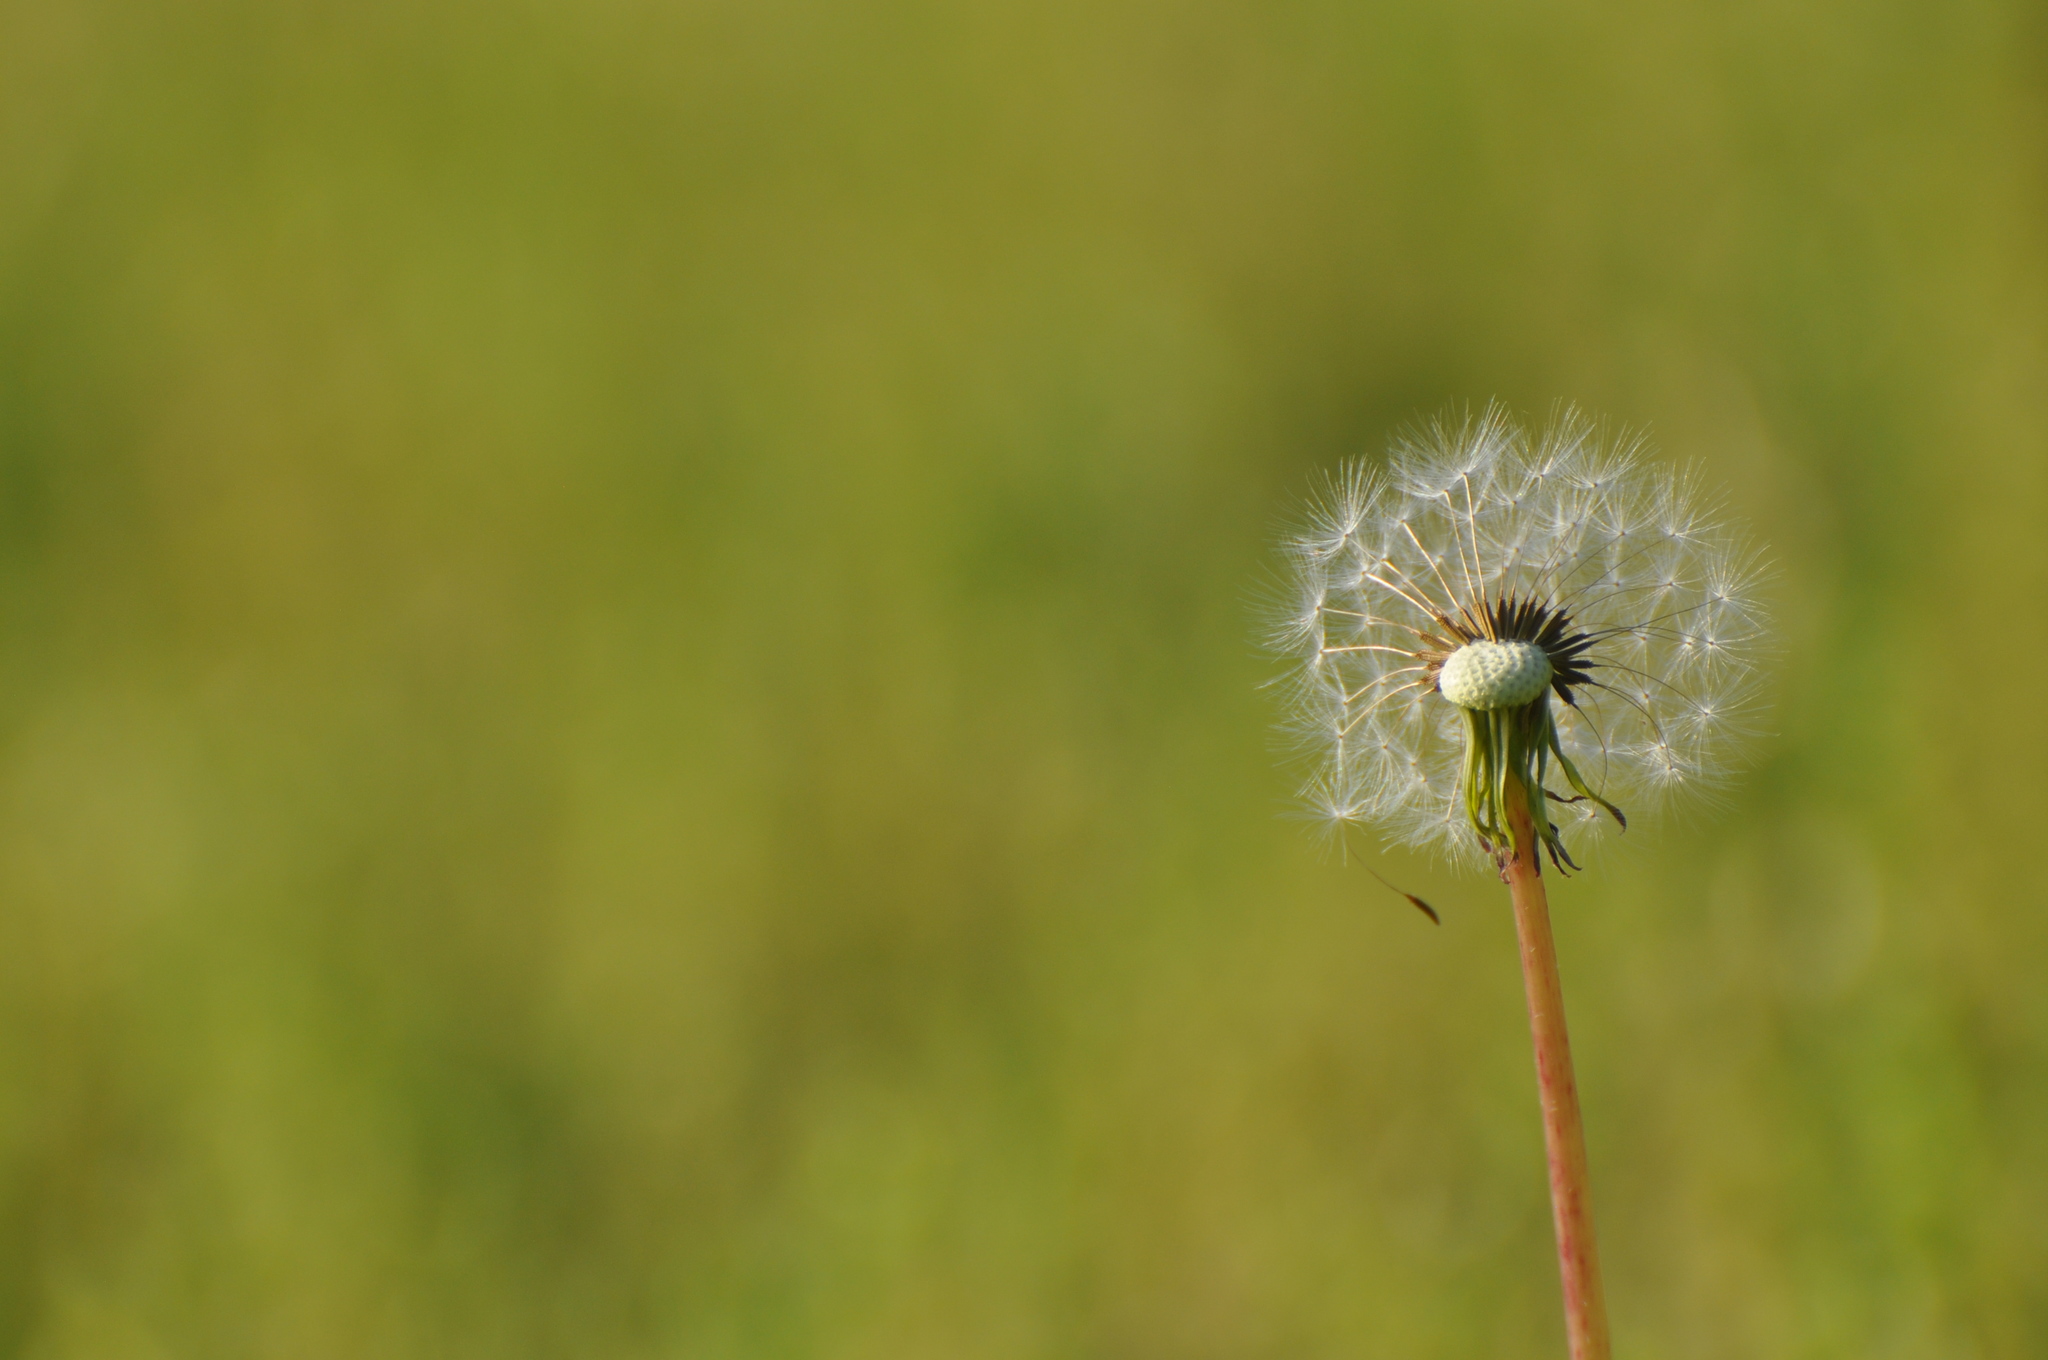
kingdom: Plantae
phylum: Tracheophyta
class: Magnoliopsida
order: Asterales
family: Asteraceae
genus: Taraxacum
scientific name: Taraxacum erythrospermum
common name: Rock dandelion
